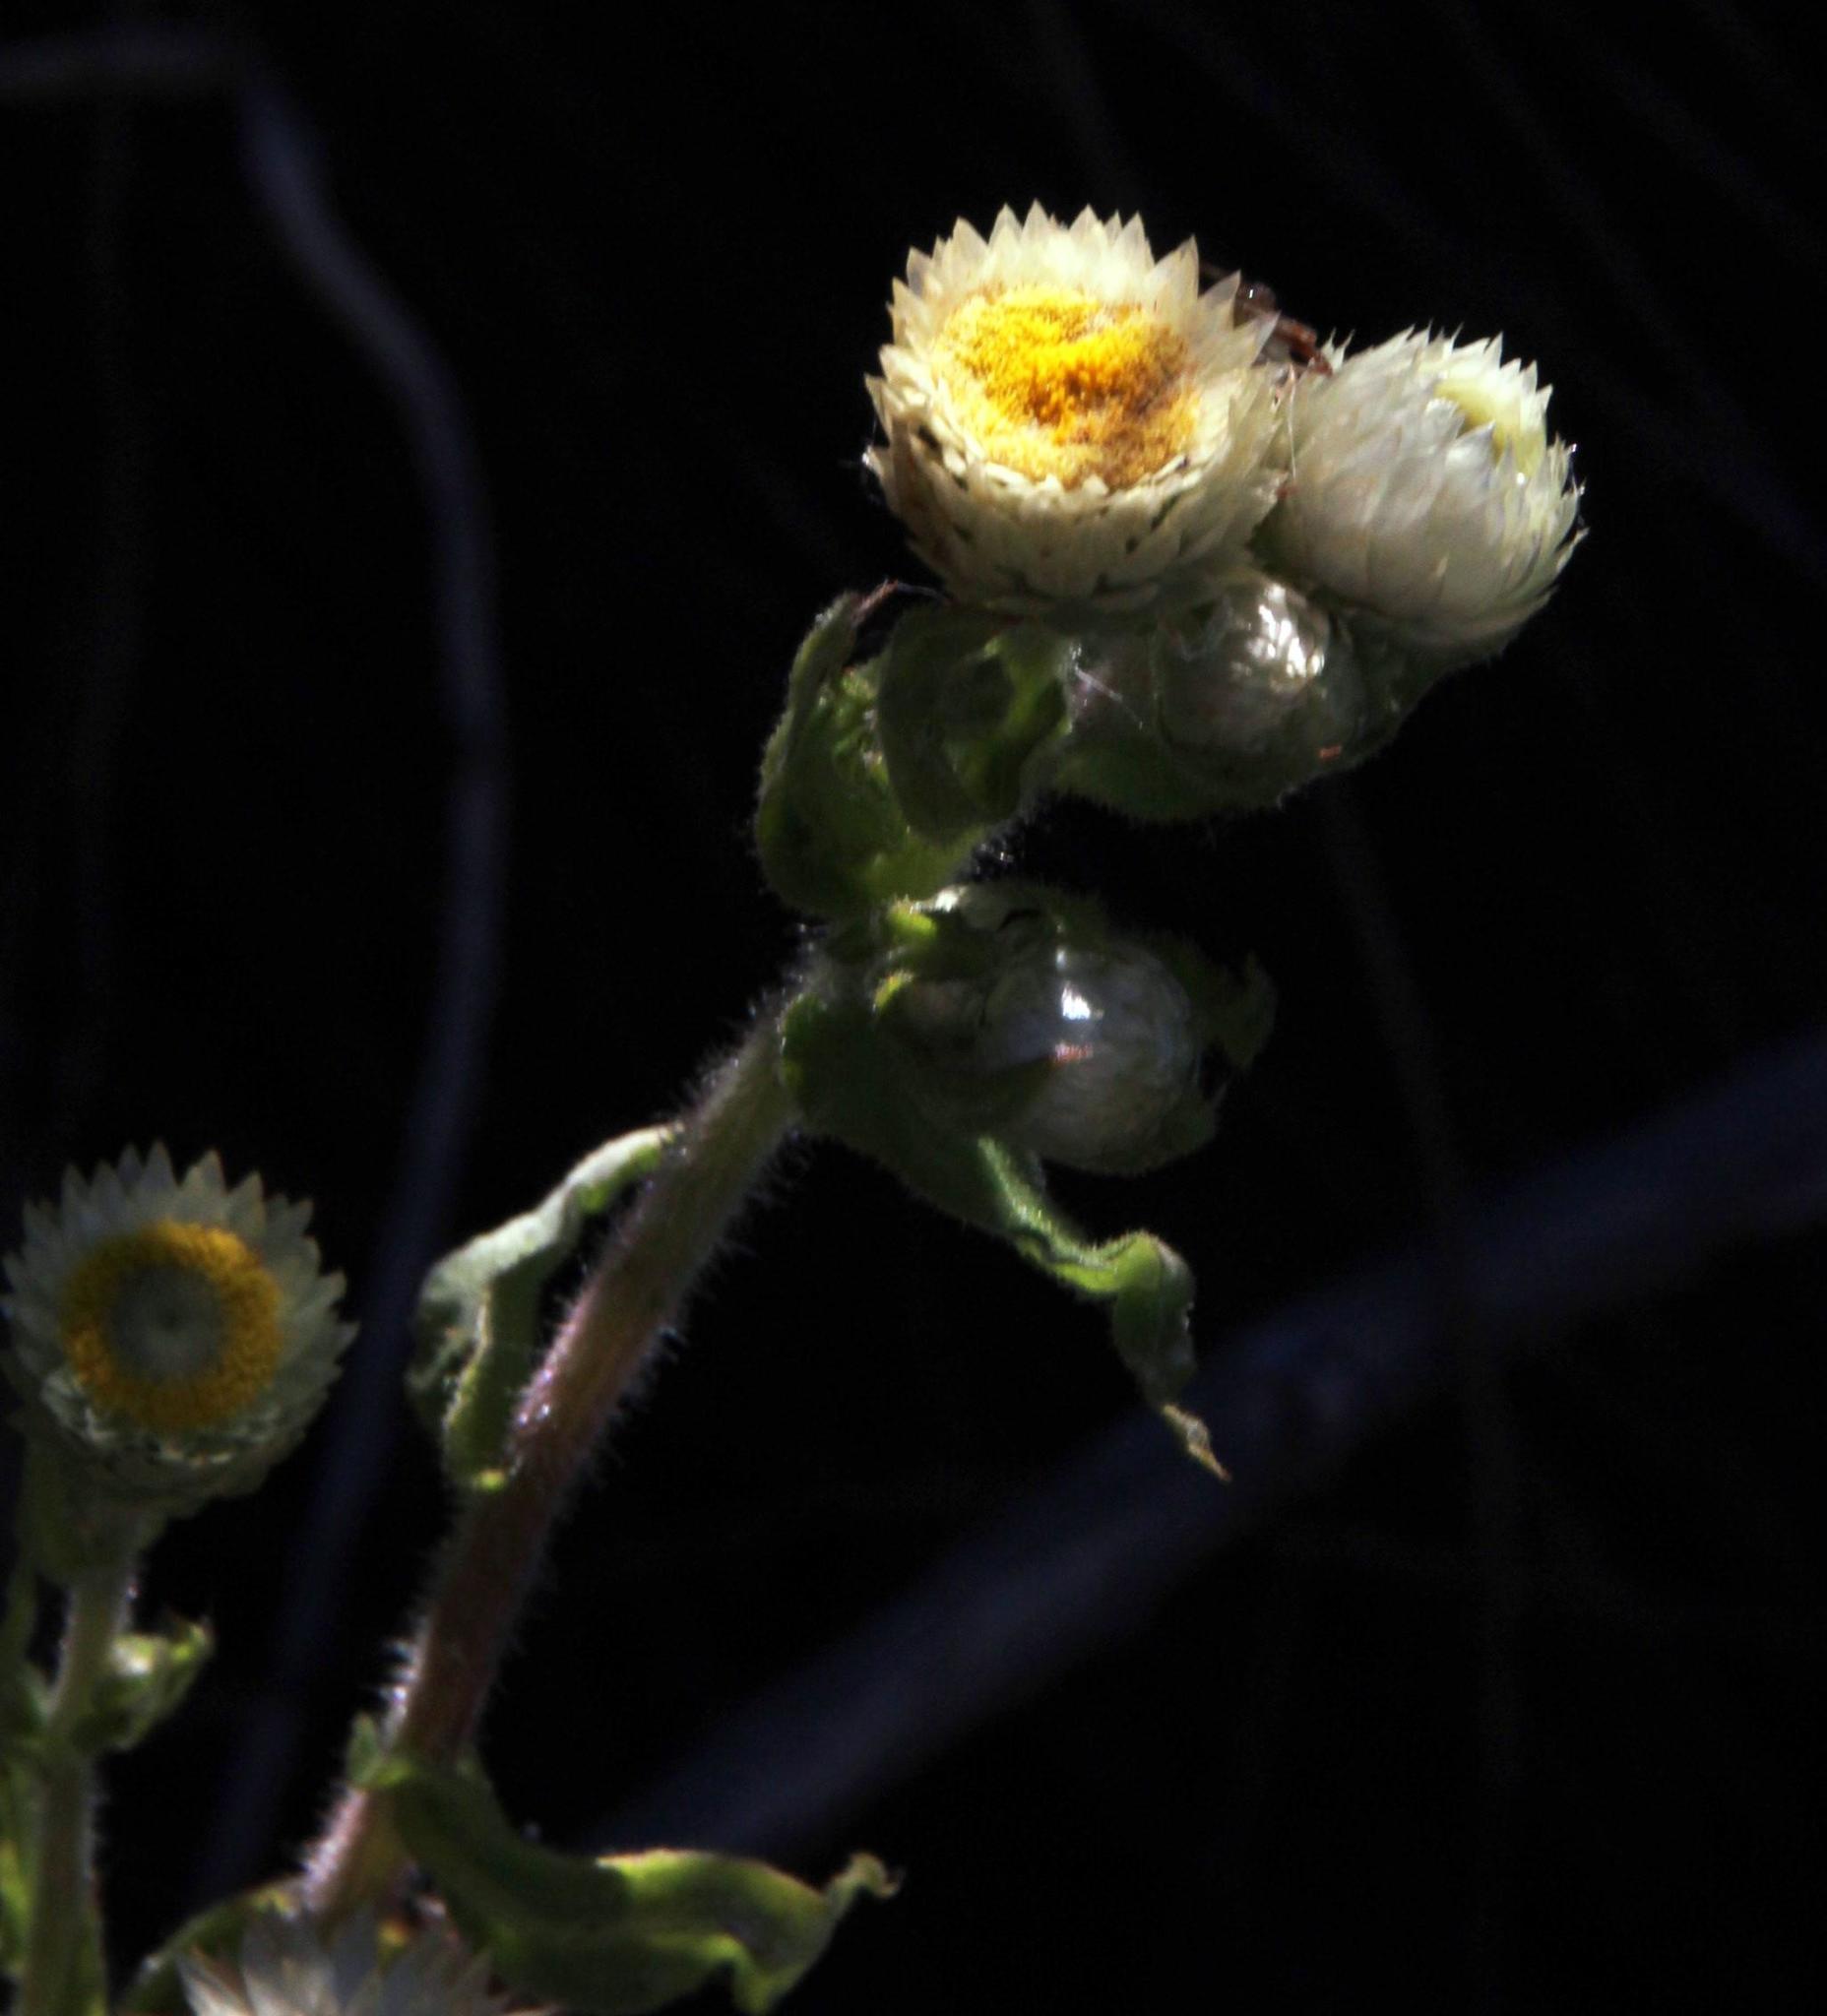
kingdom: Plantae
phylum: Tracheophyta
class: Magnoliopsida
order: Asterales
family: Asteraceae
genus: Helichrysum
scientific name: Helichrysum foetidum
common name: Stinking everlasting
